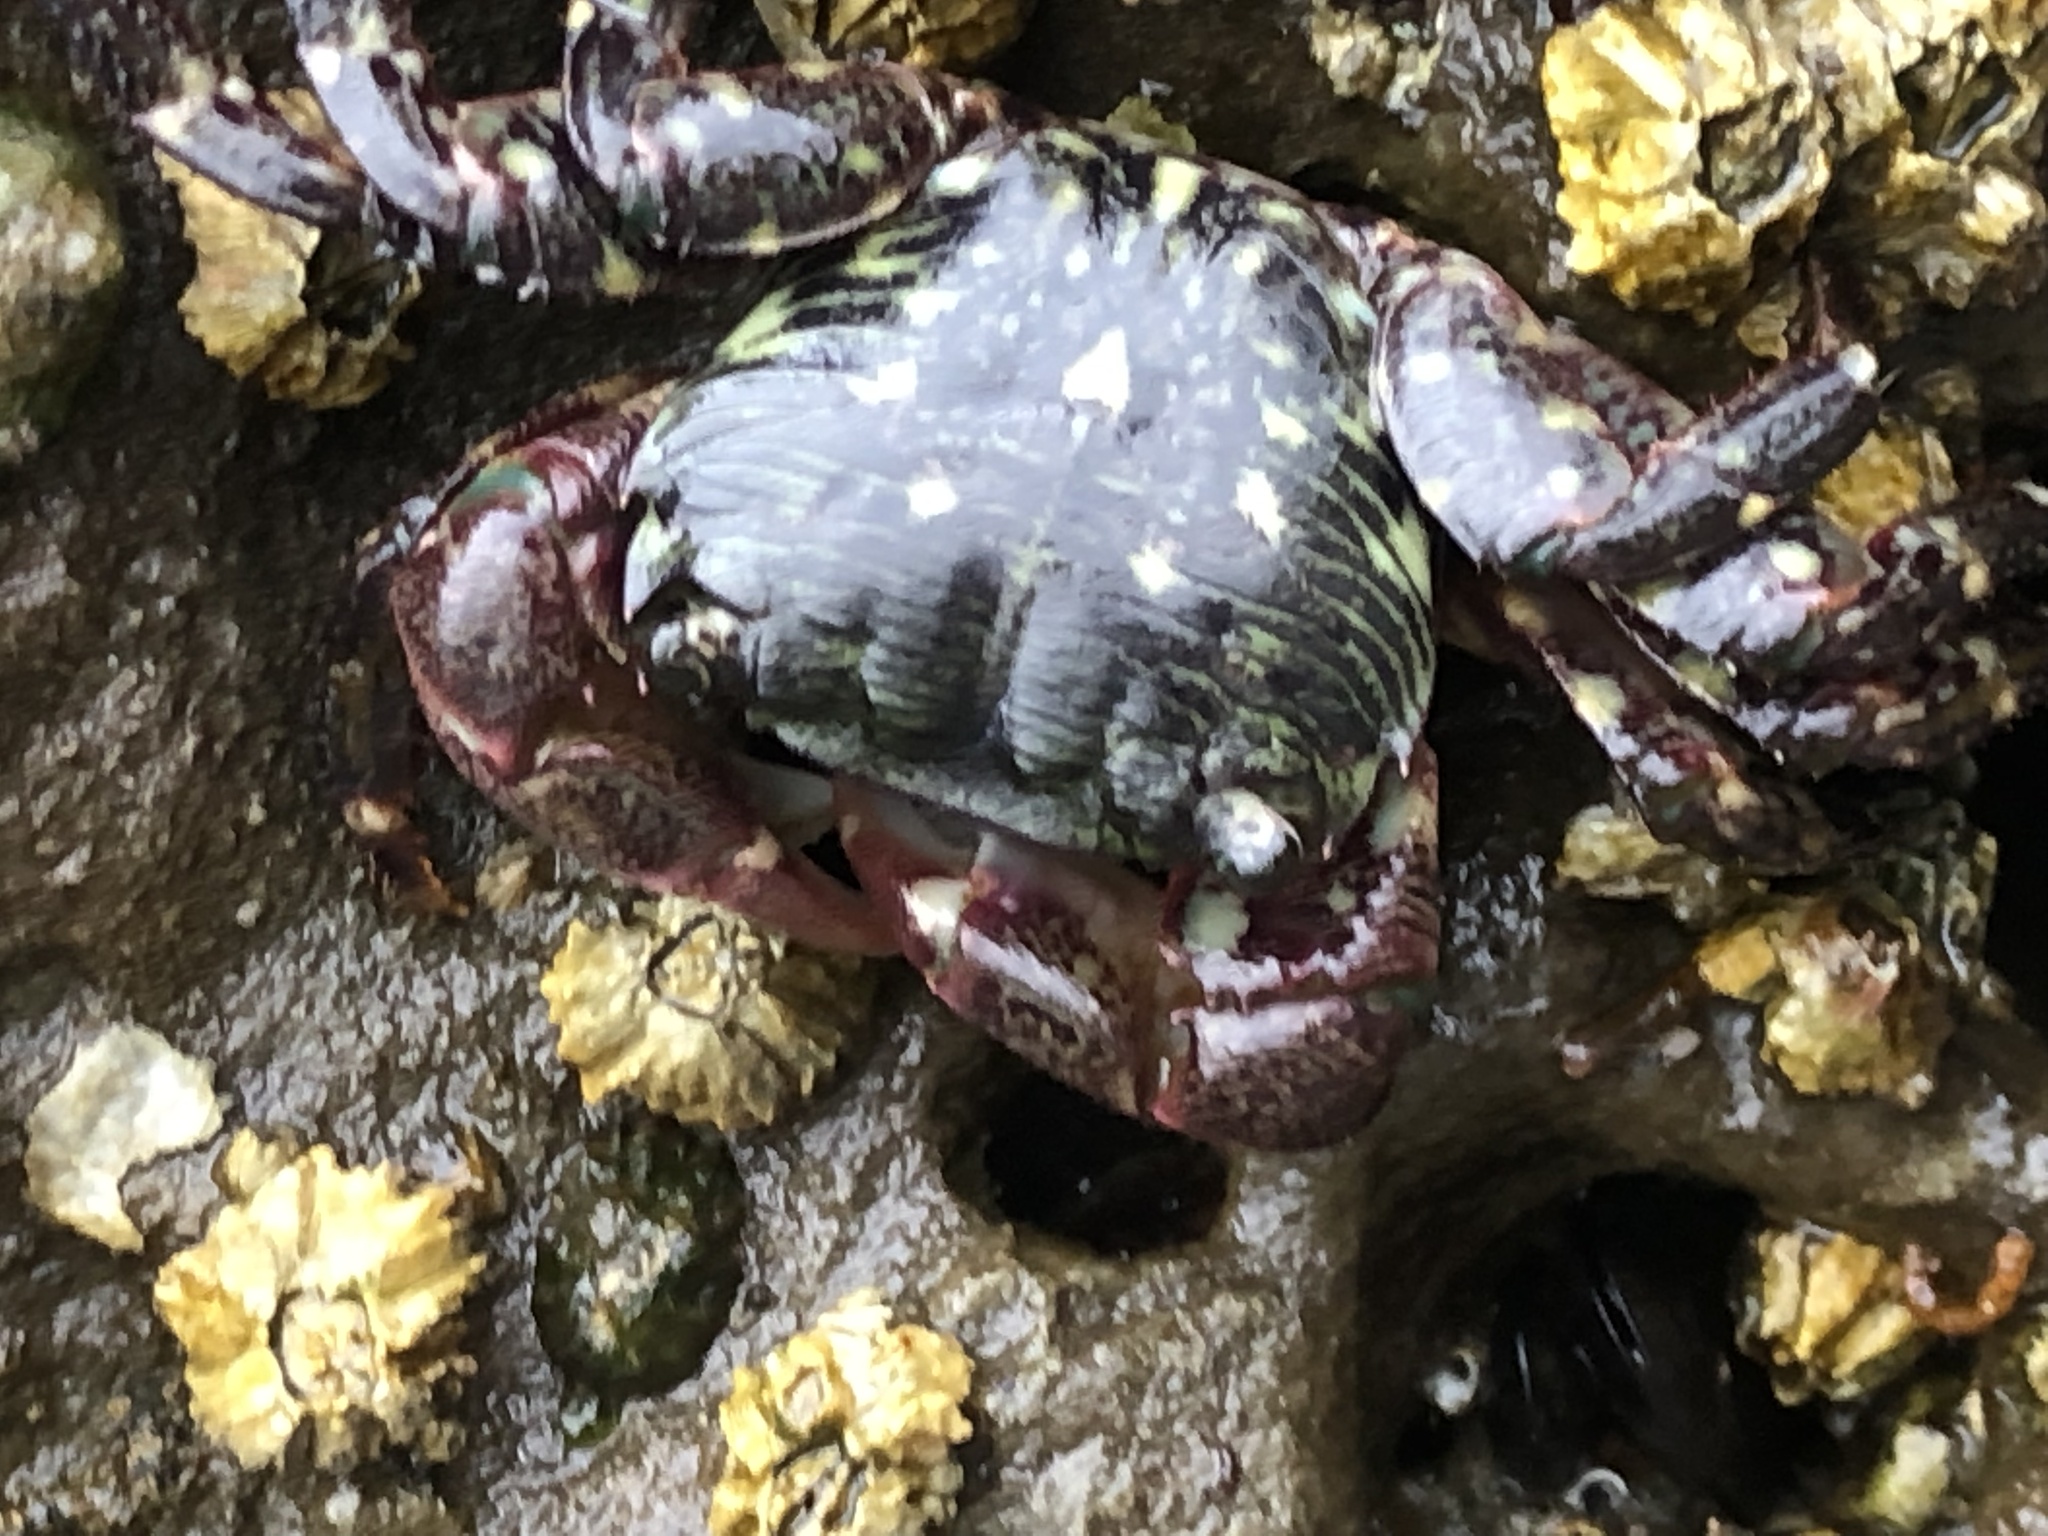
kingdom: Animalia
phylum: Arthropoda
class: Malacostraca
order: Decapoda
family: Grapsidae
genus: Pachygrapsus
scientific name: Pachygrapsus crassipes
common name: Striped shore crab
